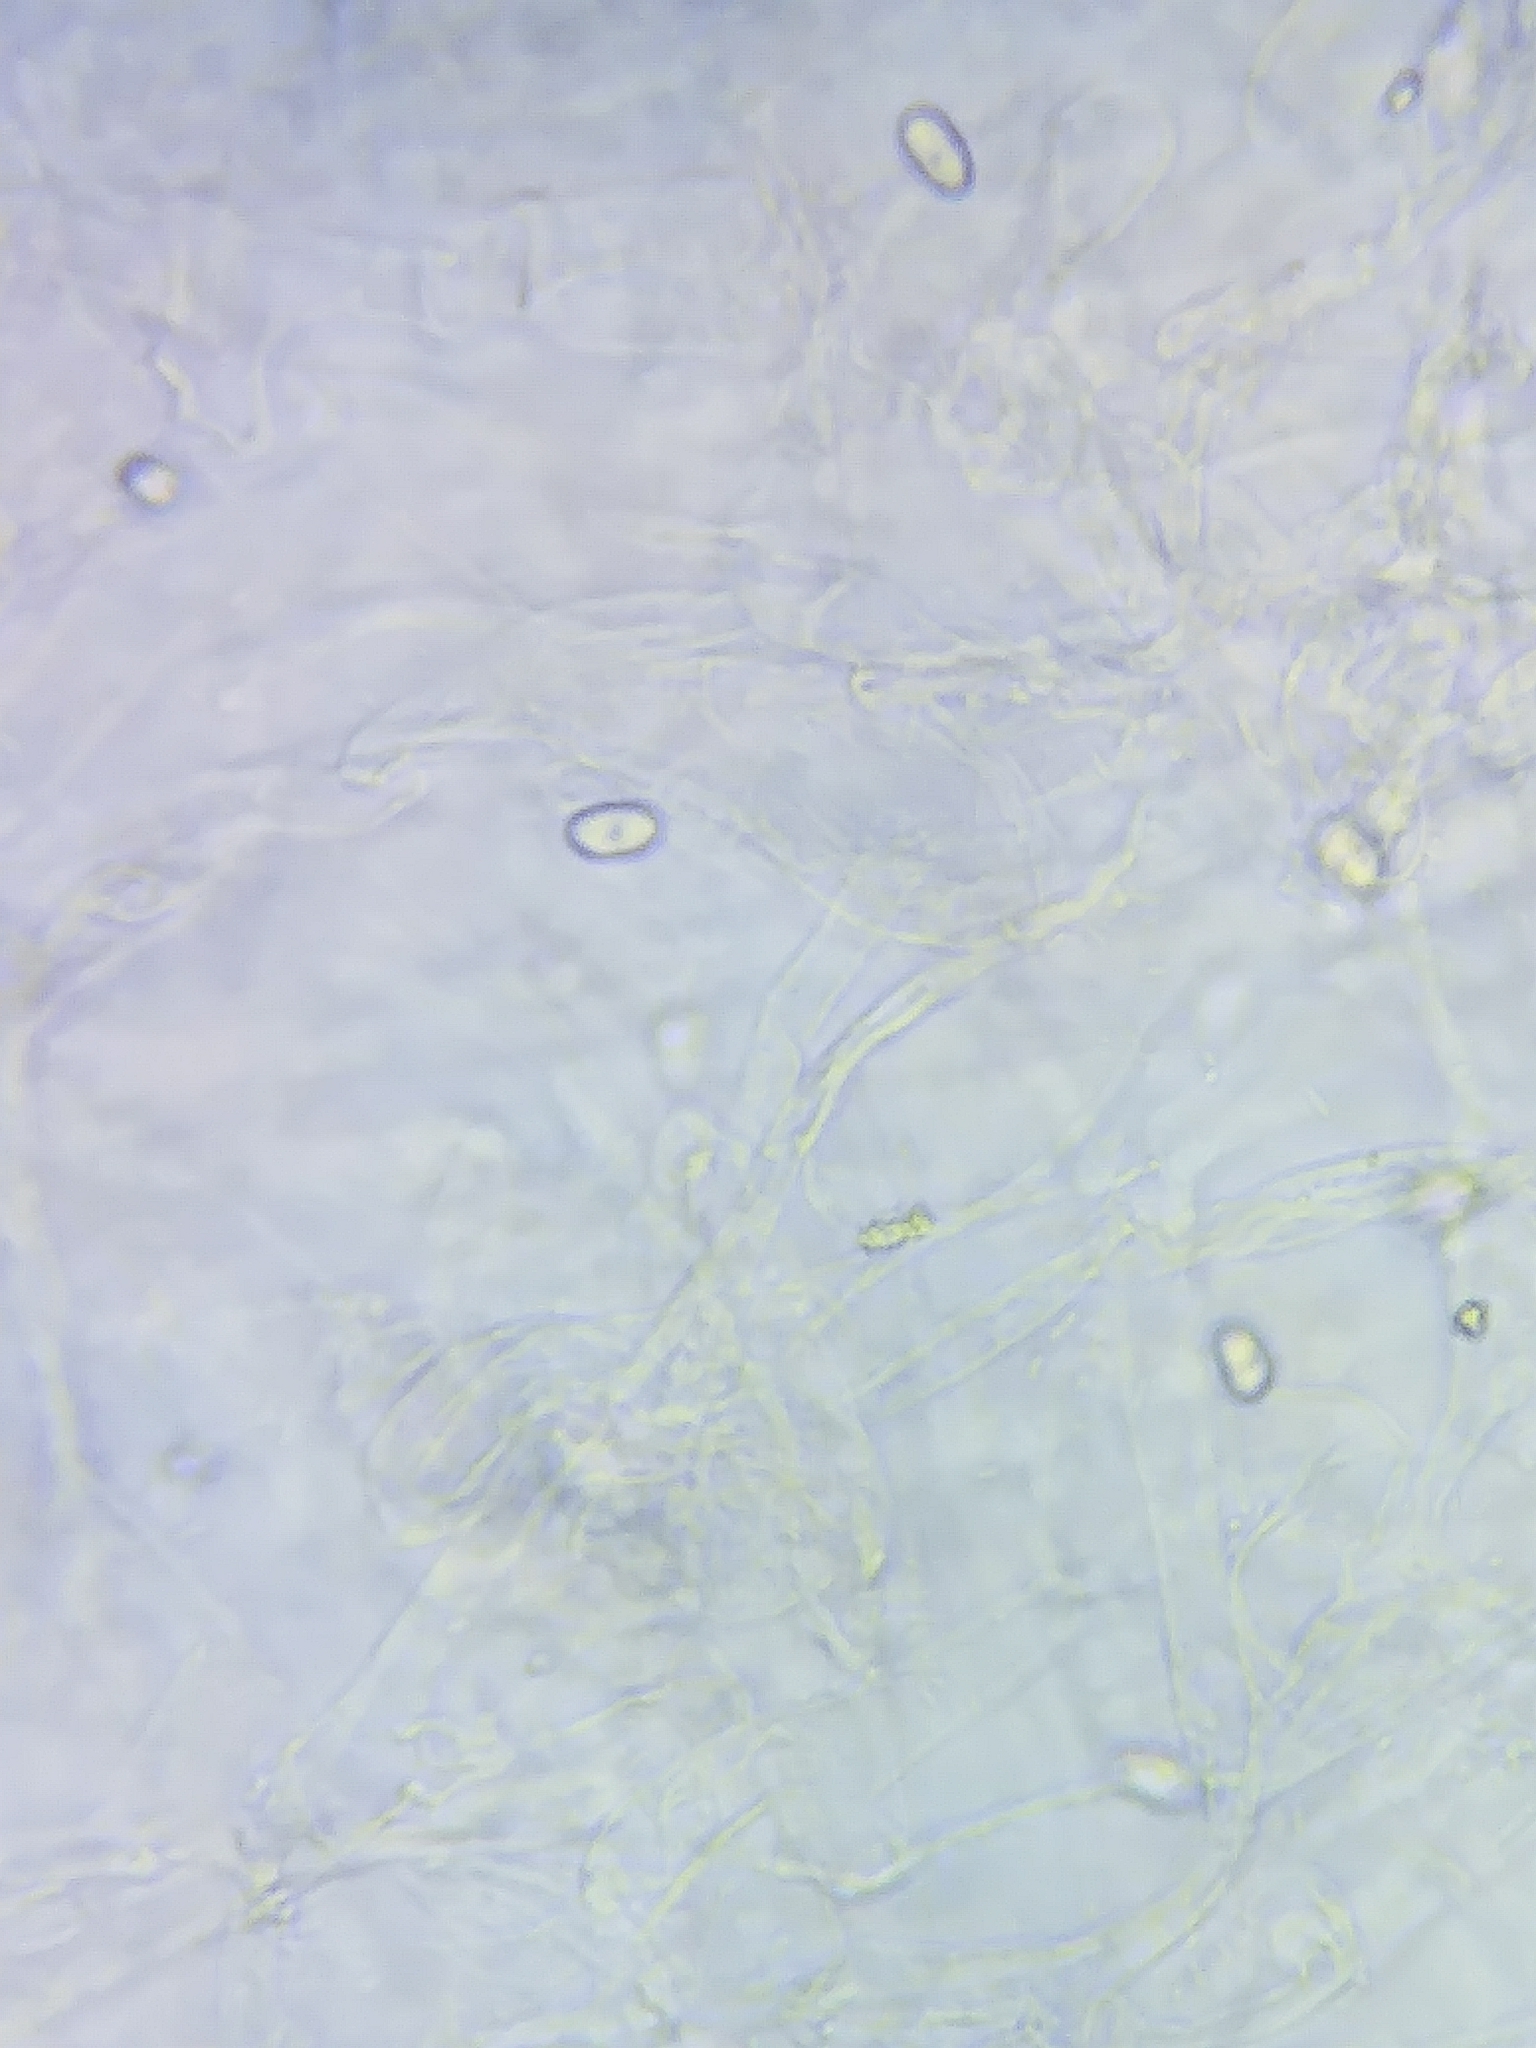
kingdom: Fungi
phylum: Basidiomycota
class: Agaricomycetes
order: Agaricales
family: Psathyrellaceae
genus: Psathyrella
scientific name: Psathyrella conissans
